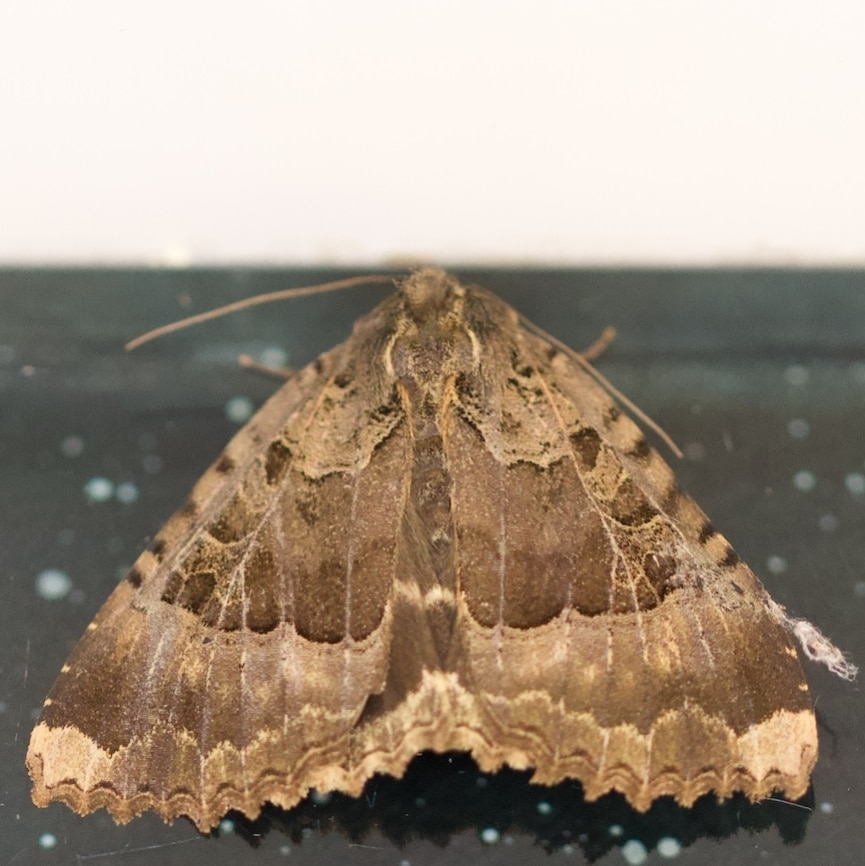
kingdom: Animalia
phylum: Arthropoda
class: Insecta
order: Lepidoptera
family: Noctuidae
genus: Mormo
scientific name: Mormo maura
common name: Old lady
